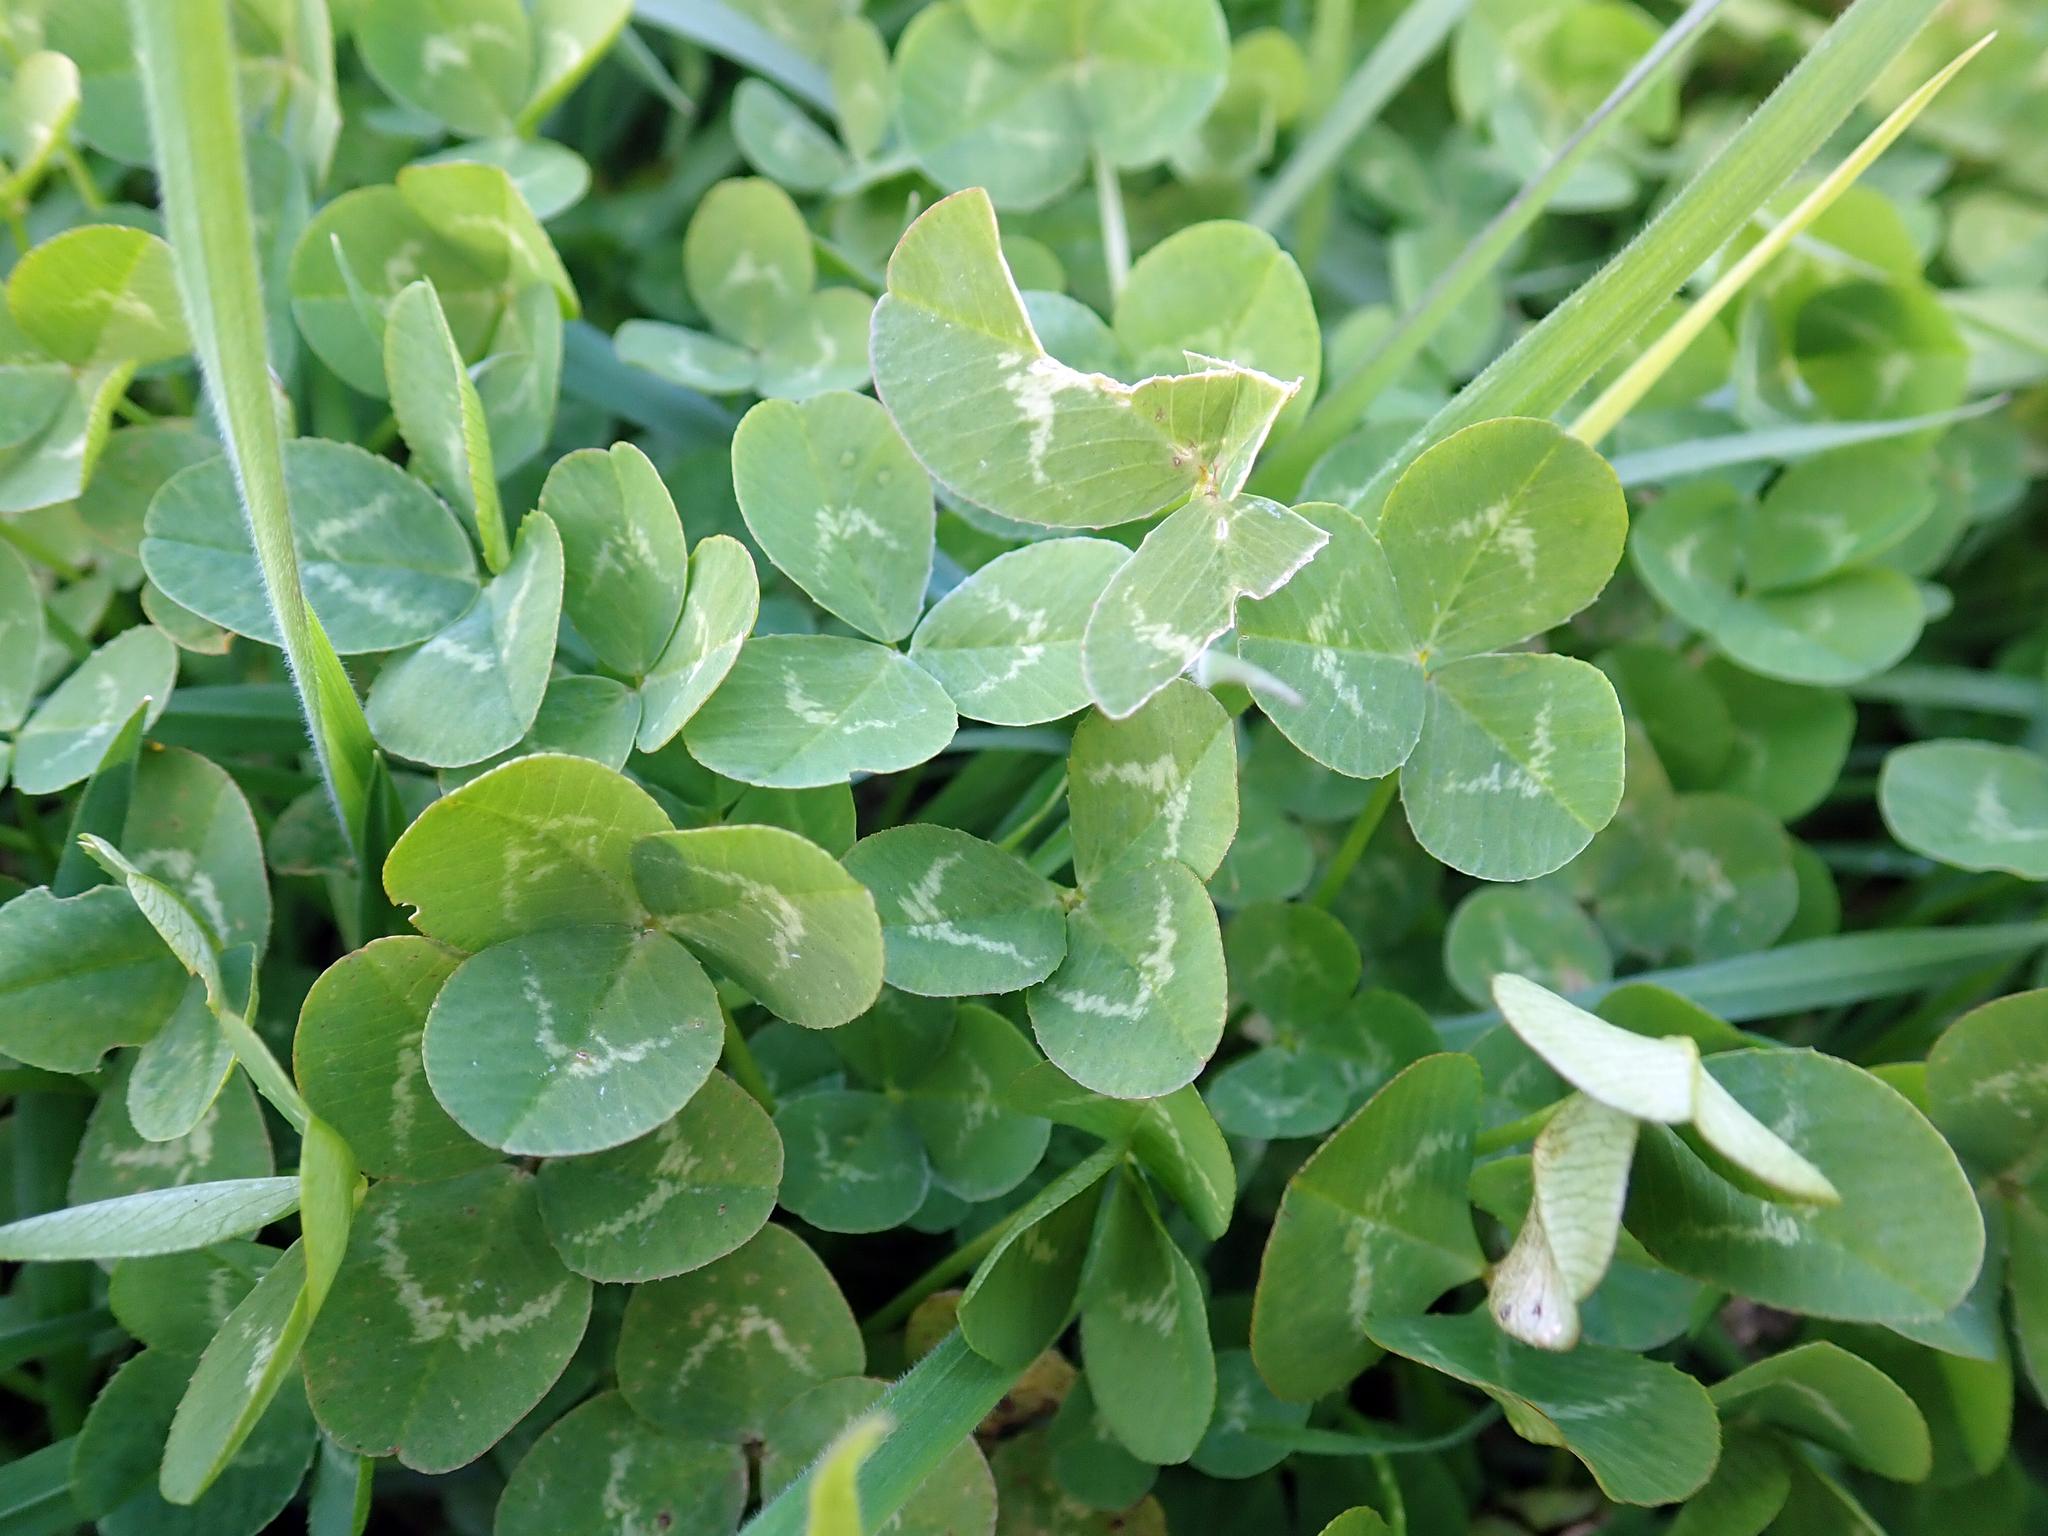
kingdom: Plantae
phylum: Tracheophyta
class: Magnoliopsida
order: Fabales
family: Fabaceae
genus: Trifolium
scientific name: Trifolium repens
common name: White clover
